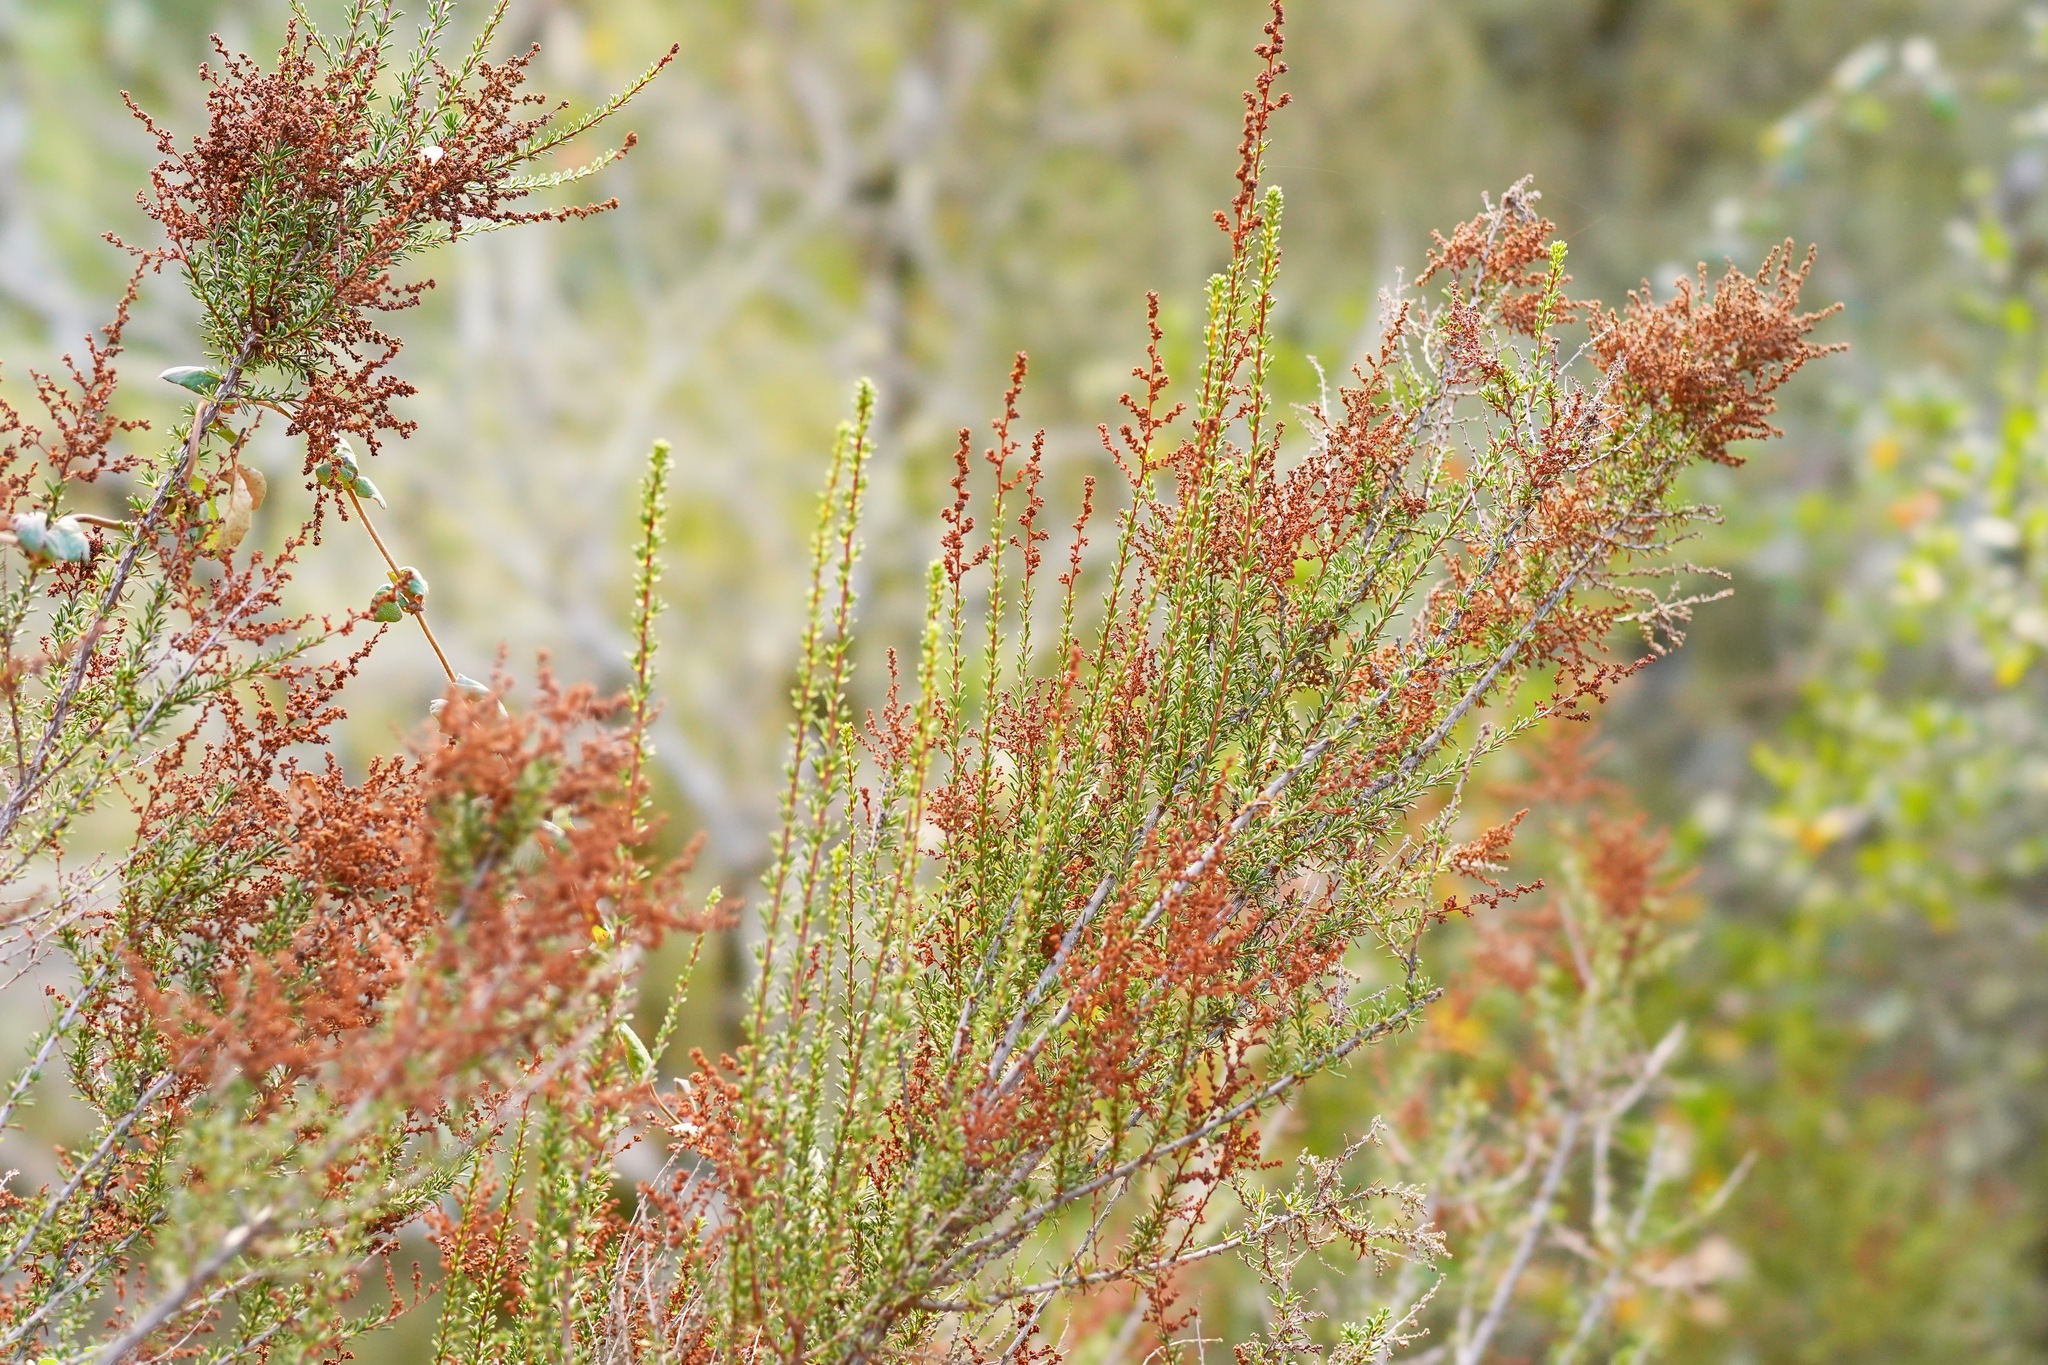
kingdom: Plantae
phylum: Tracheophyta
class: Magnoliopsida
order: Rosales
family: Rosaceae
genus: Adenostoma
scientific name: Adenostoma fasciculatum
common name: Chamise
